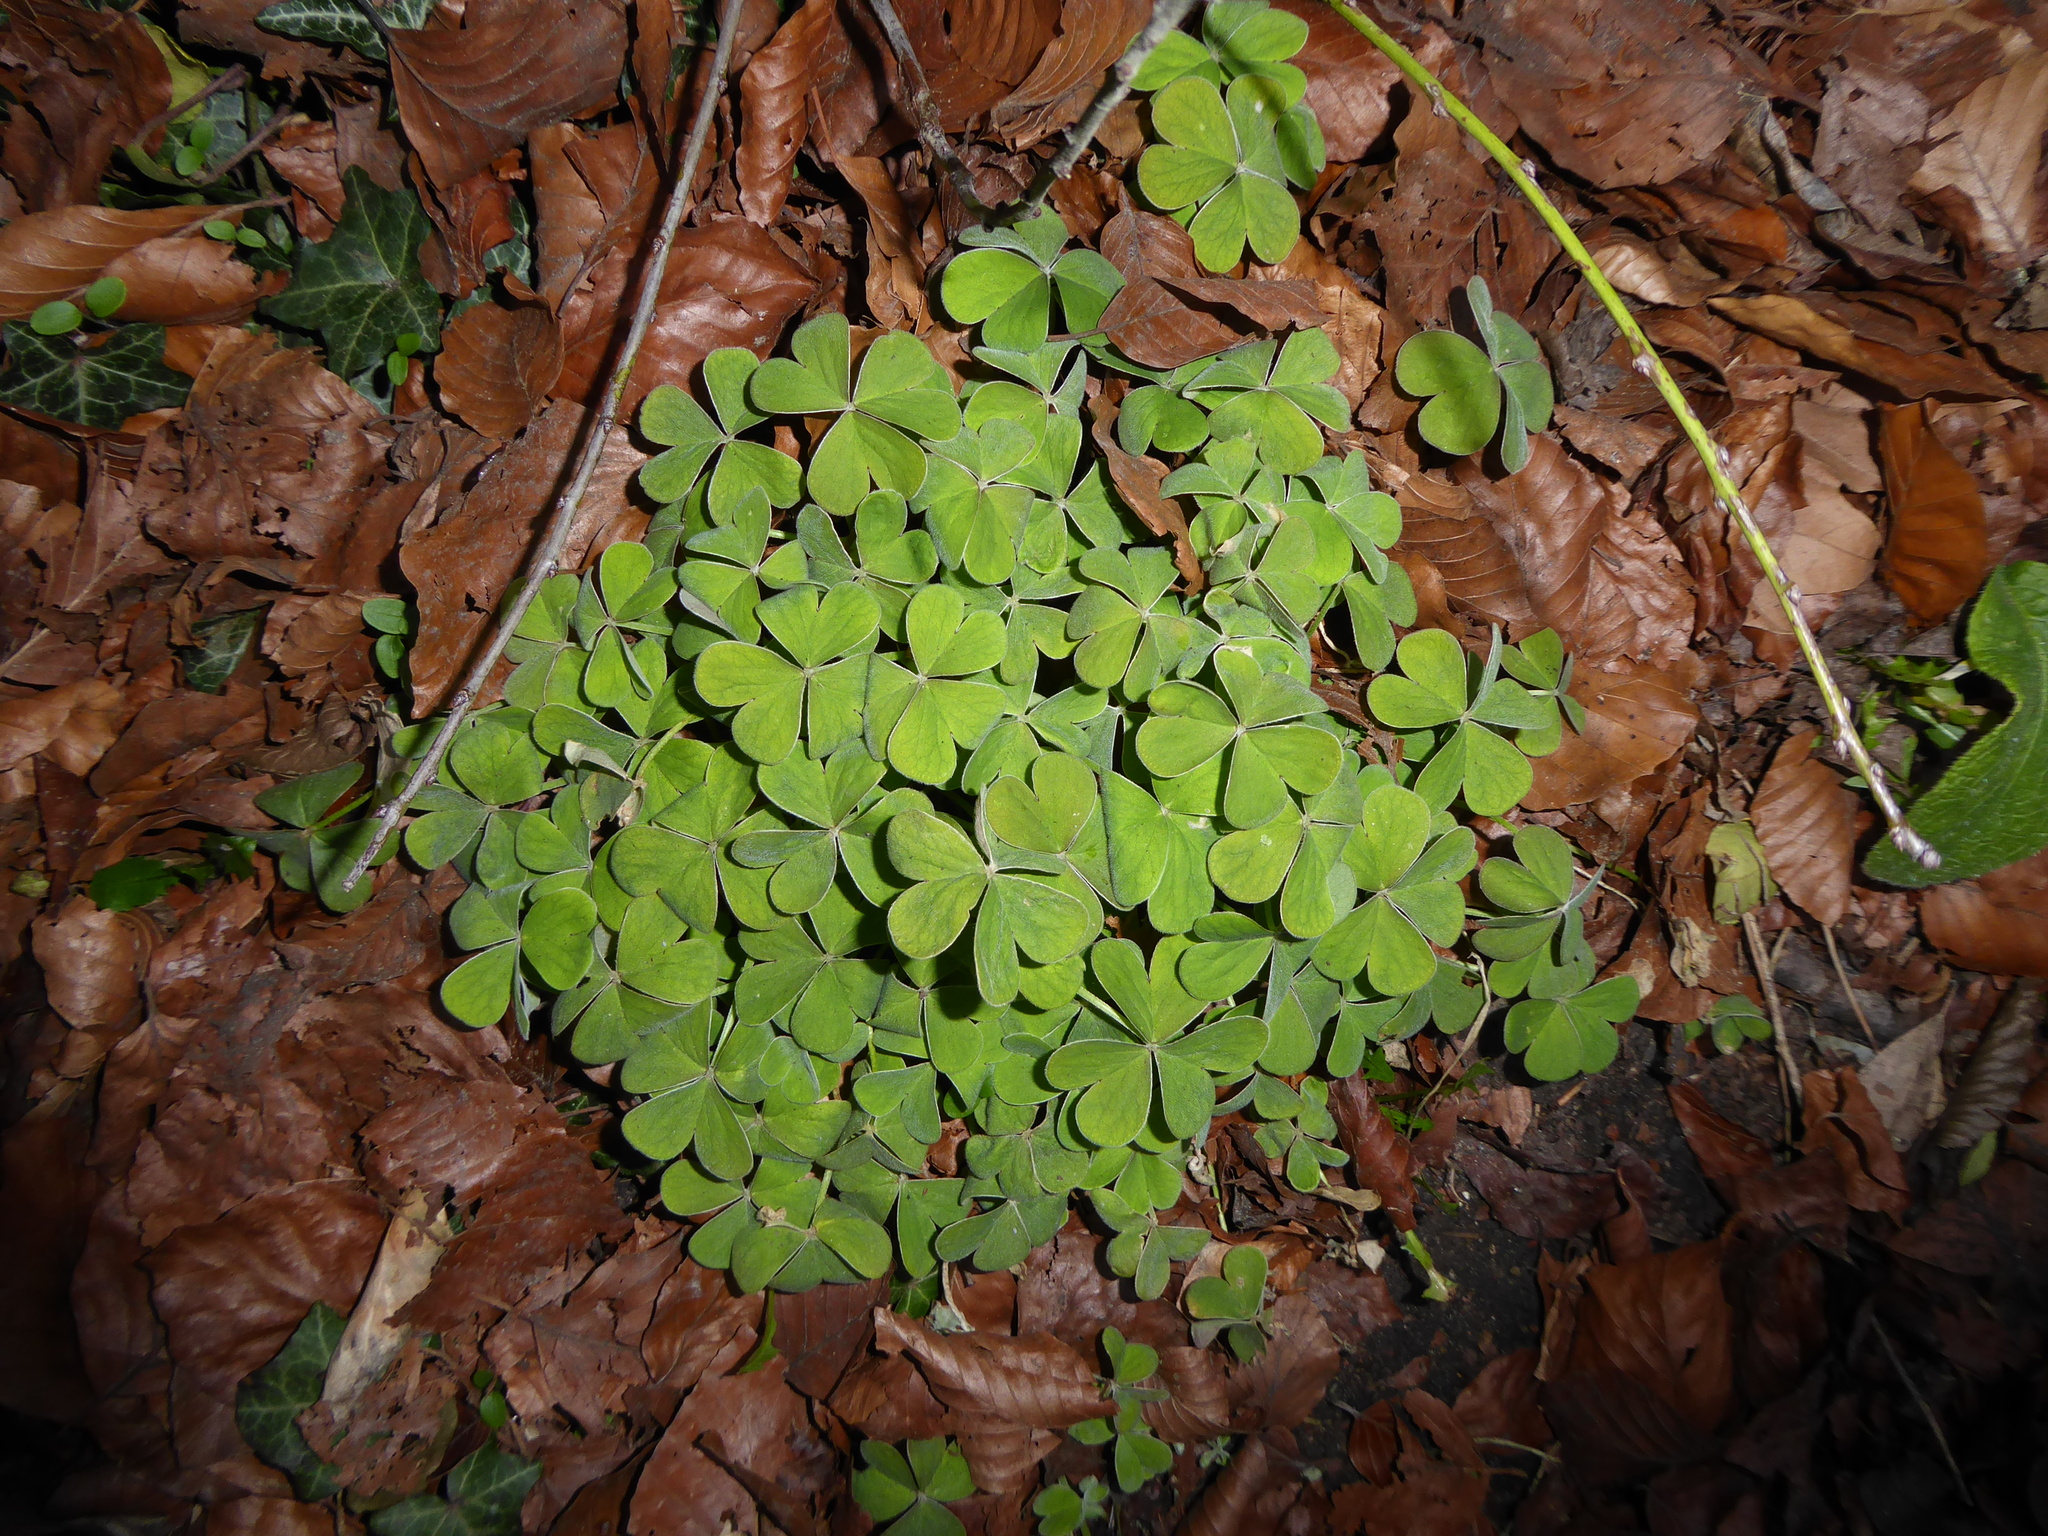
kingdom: Plantae
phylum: Tracheophyta
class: Magnoliopsida
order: Oxalidales
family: Oxalidaceae
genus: Oxalis
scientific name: Oxalis articulata
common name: Pink-sorrel
